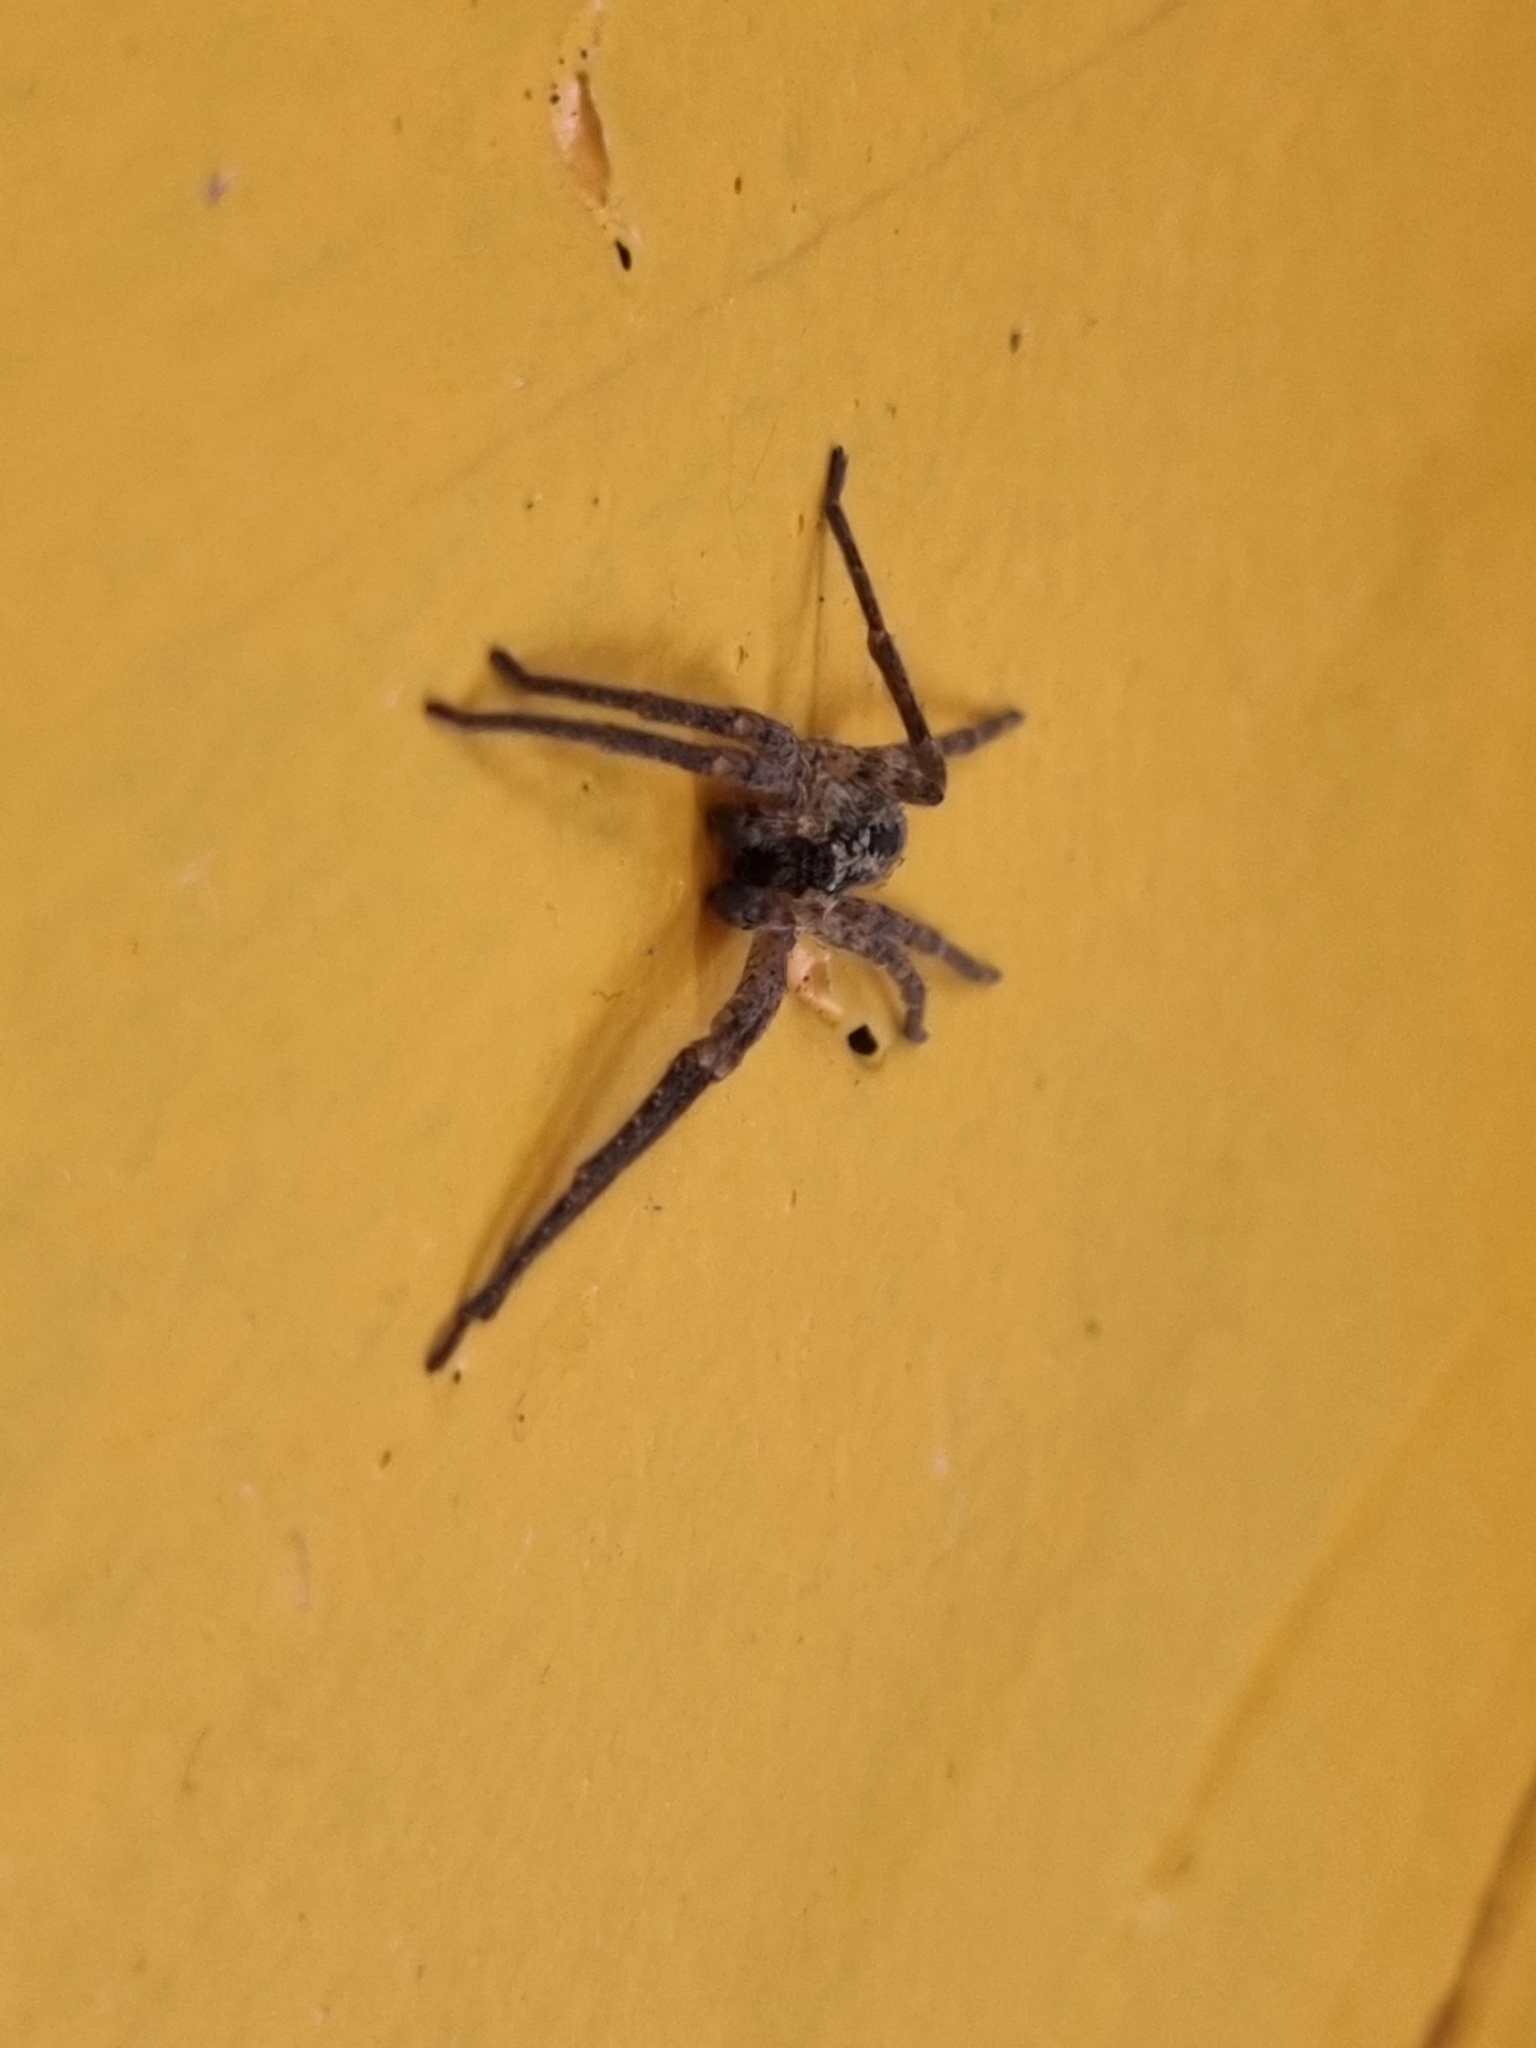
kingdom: Animalia
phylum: Arthropoda
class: Arachnida
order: Araneae
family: Zoropsidae
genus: Zoropsis
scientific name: Zoropsis spinimana
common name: Zoropsid spider
